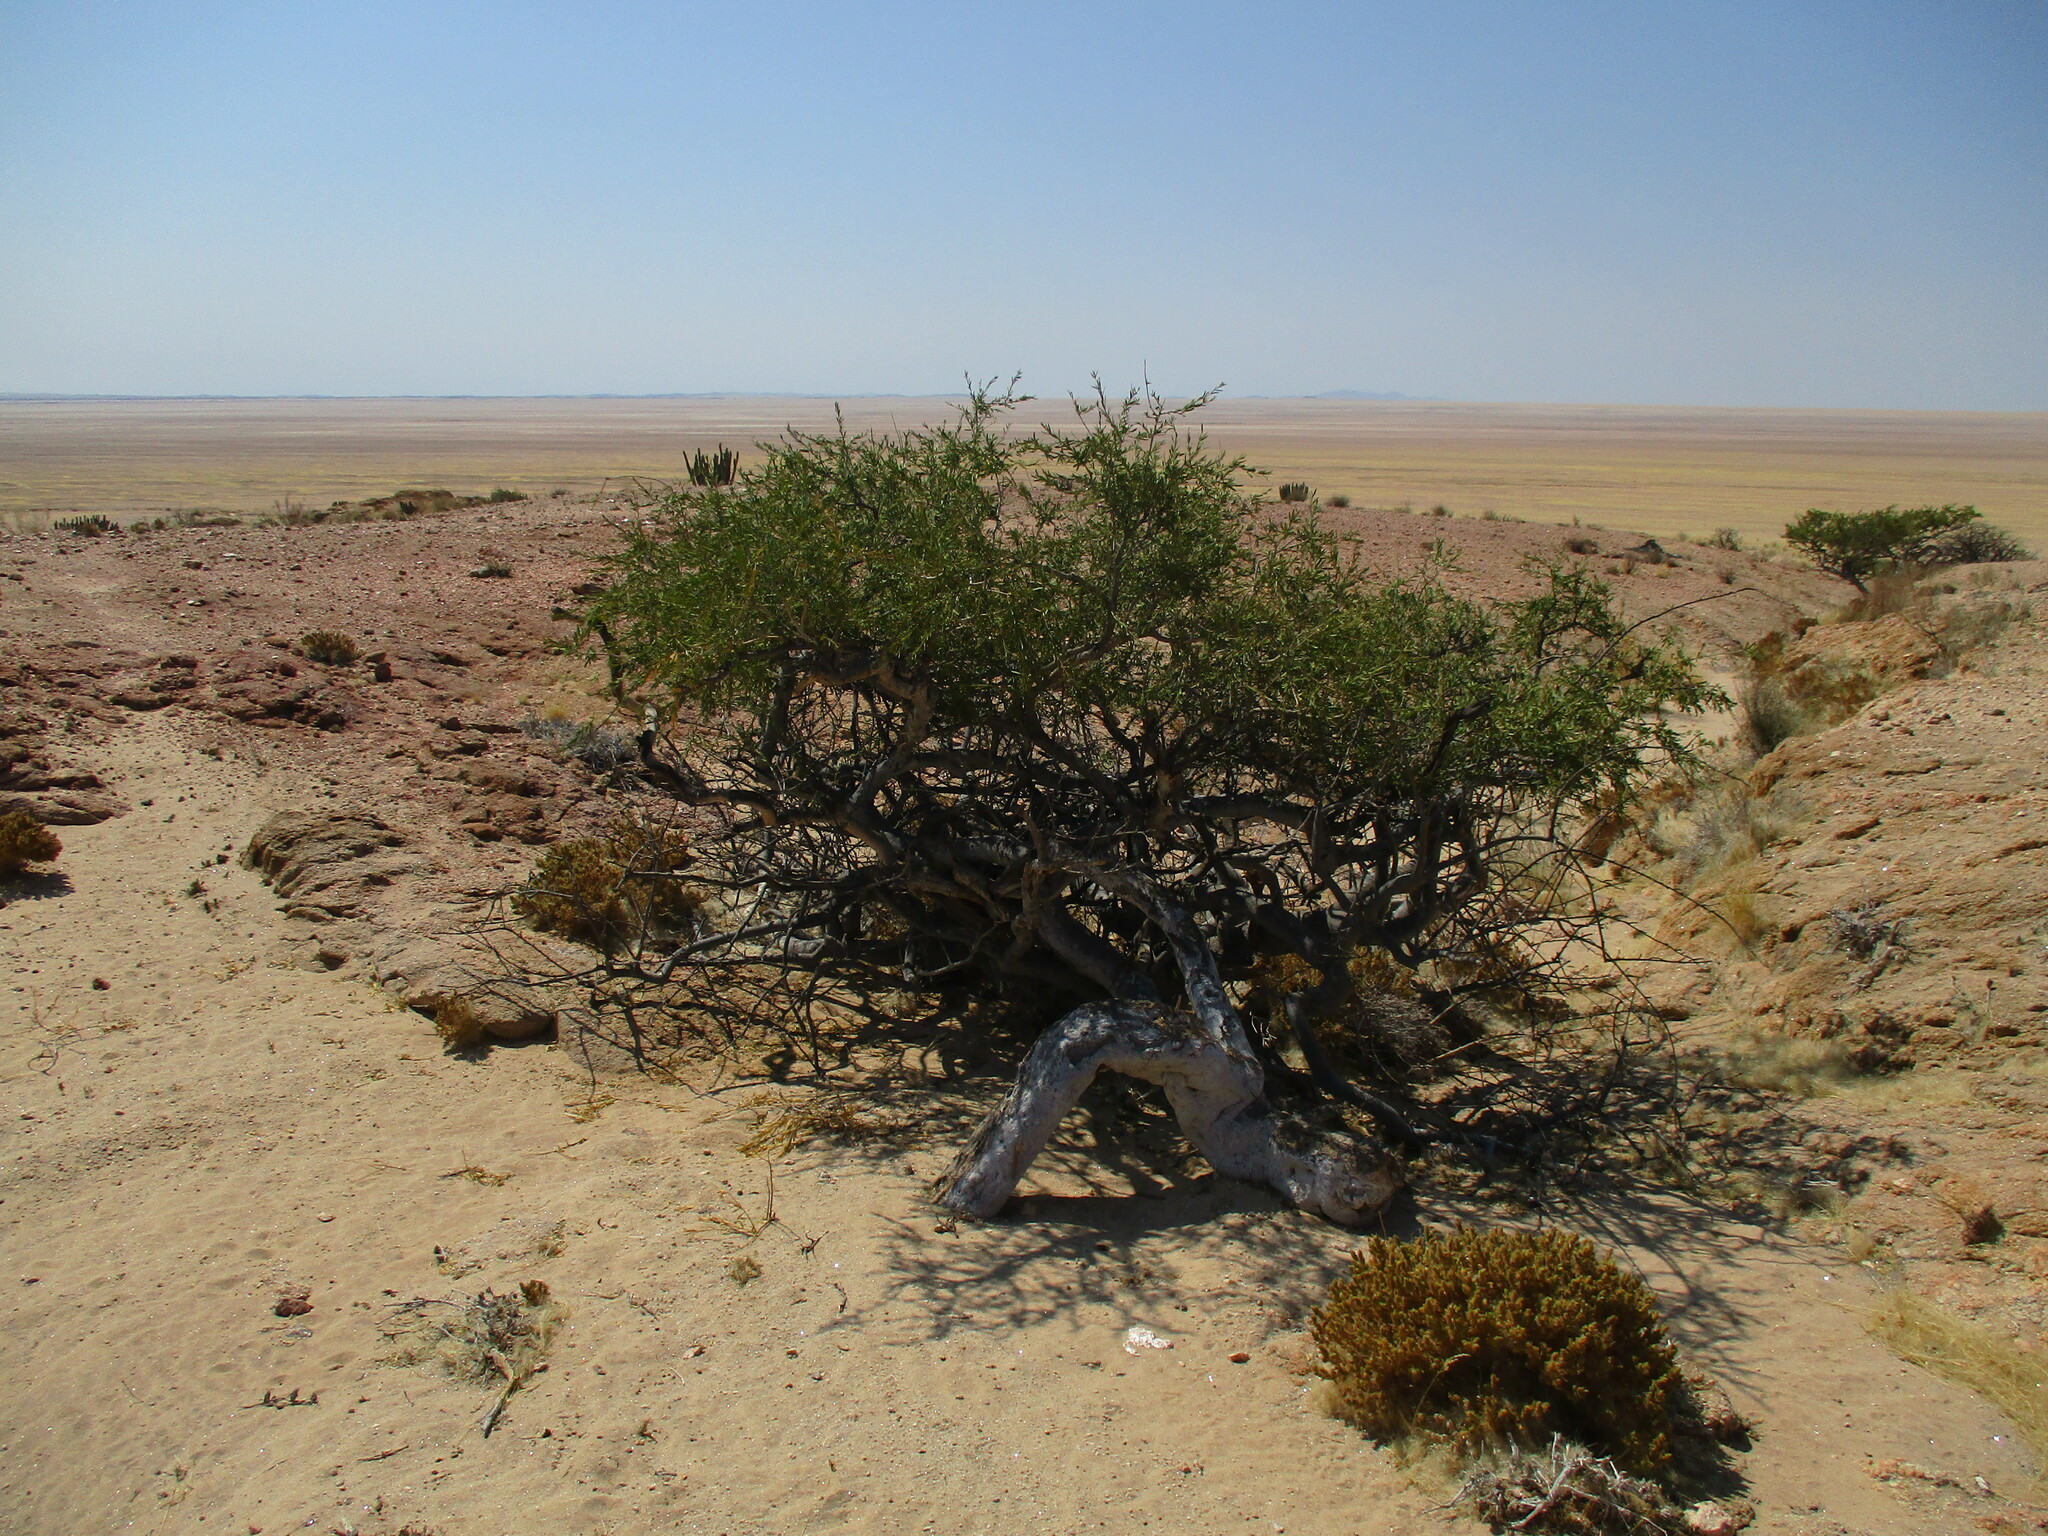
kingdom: Plantae
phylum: Tracheophyta
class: Magnoliopsida
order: Brassicales
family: Capparaceae
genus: Boscia
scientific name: Boscia albitrunca
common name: Caper bush
